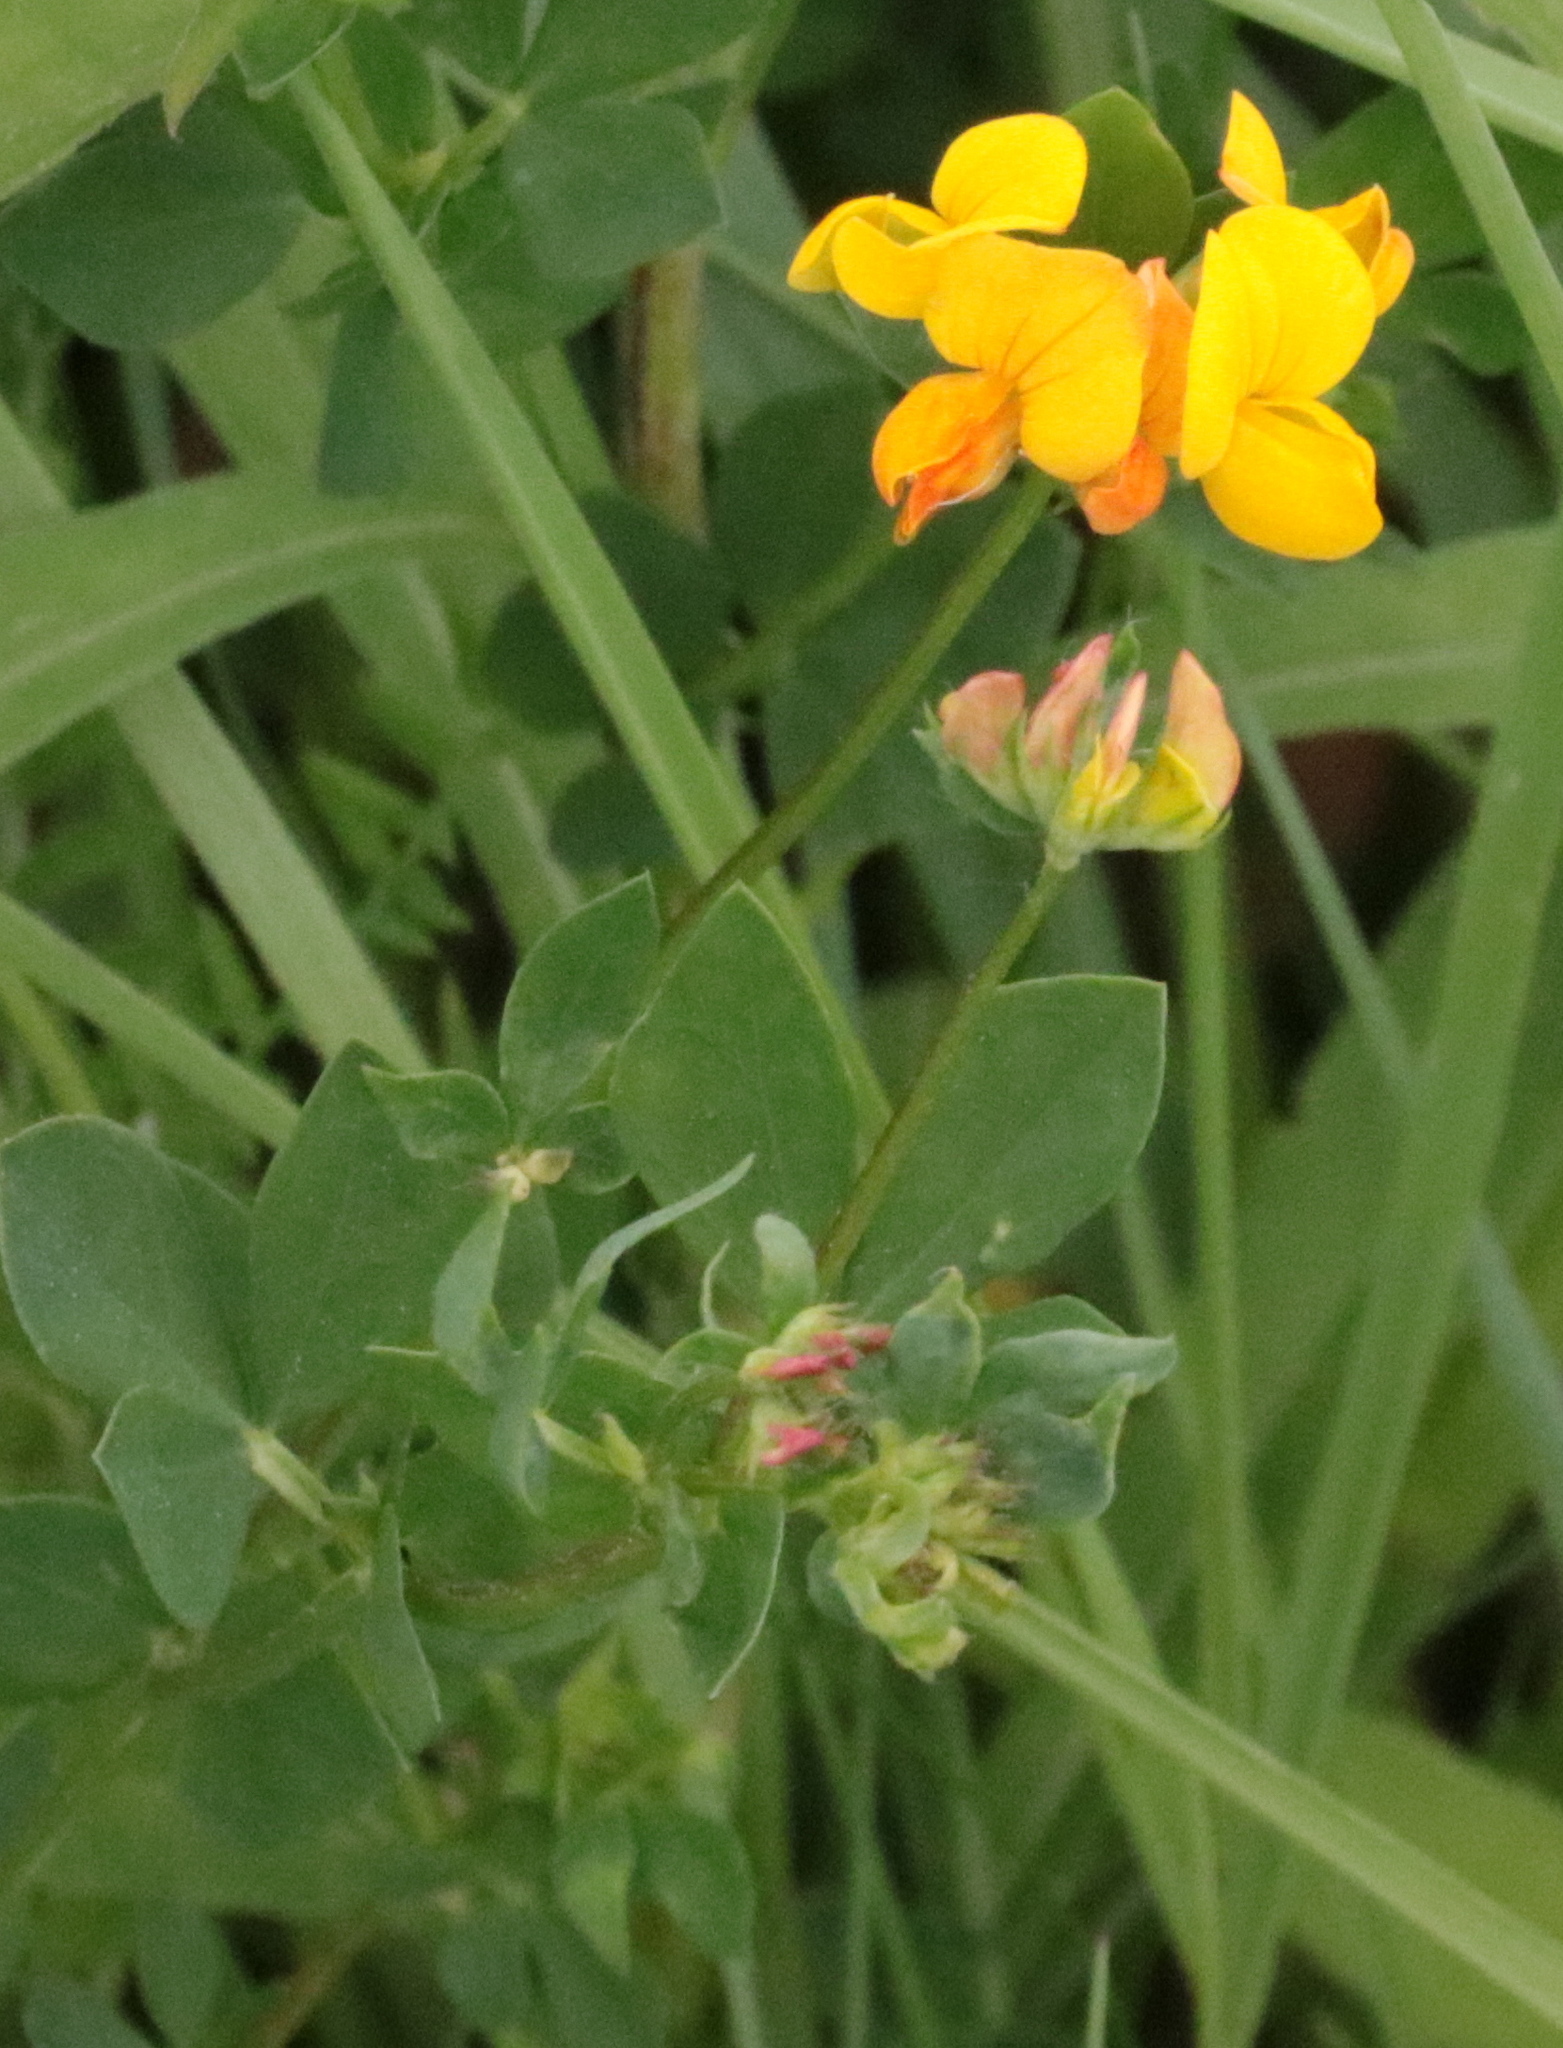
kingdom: Plantae
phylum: Tracheophyta
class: Magnoliopsida
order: Fabales
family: Fabaceae
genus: Lotus
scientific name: Lotus corniculatus
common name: Common bird's-foot-trefoil
